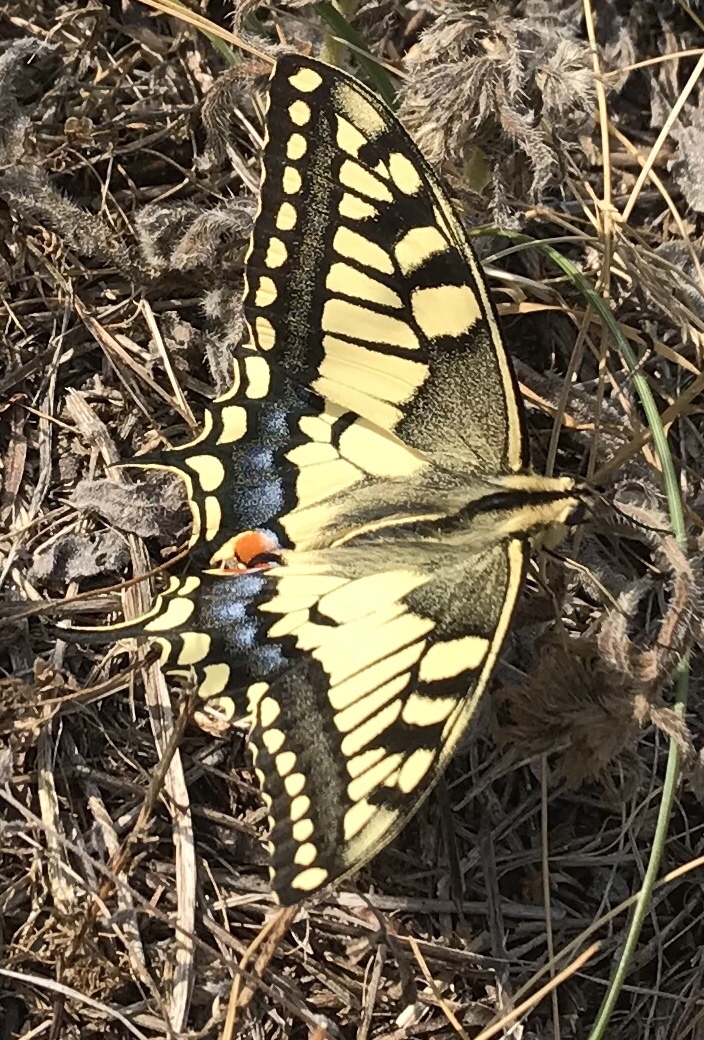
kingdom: Animalia
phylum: Arthropoda
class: Insecta
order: Lepidoptera
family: Papilionidae
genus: Papilio
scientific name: Papilio machaon
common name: Swallowtail
